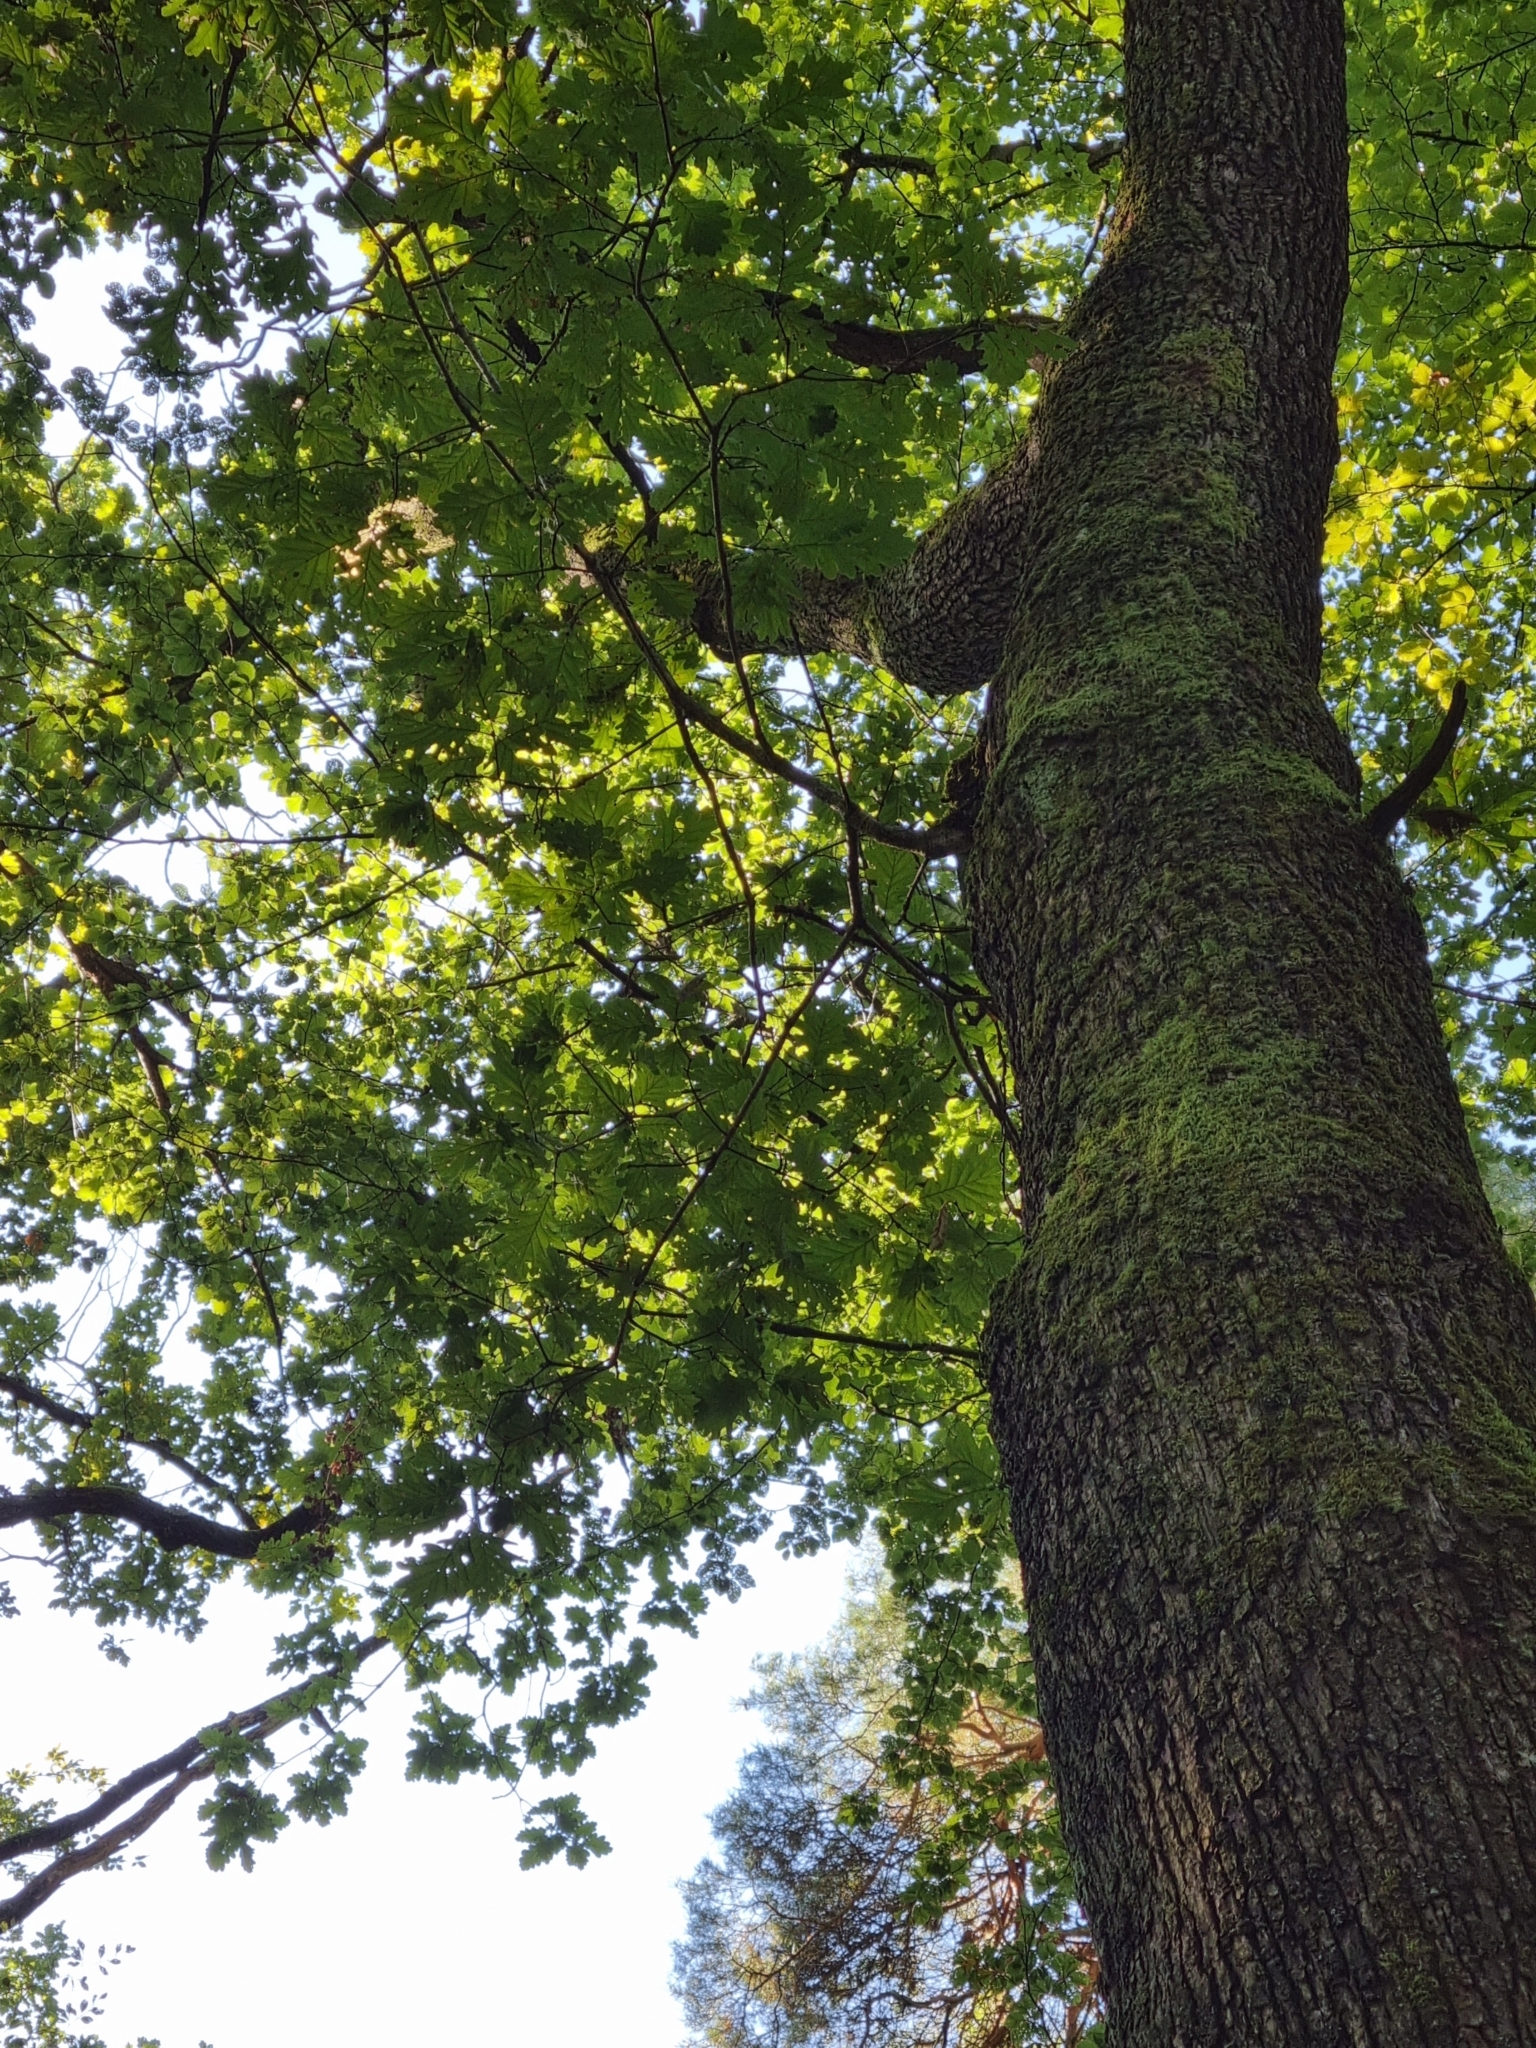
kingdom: Plantae
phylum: Tracheophyta
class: Magnoliopsida
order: Fagales
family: Fagaceae
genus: Quercus
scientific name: Quercus petraea
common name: Sessile oak
